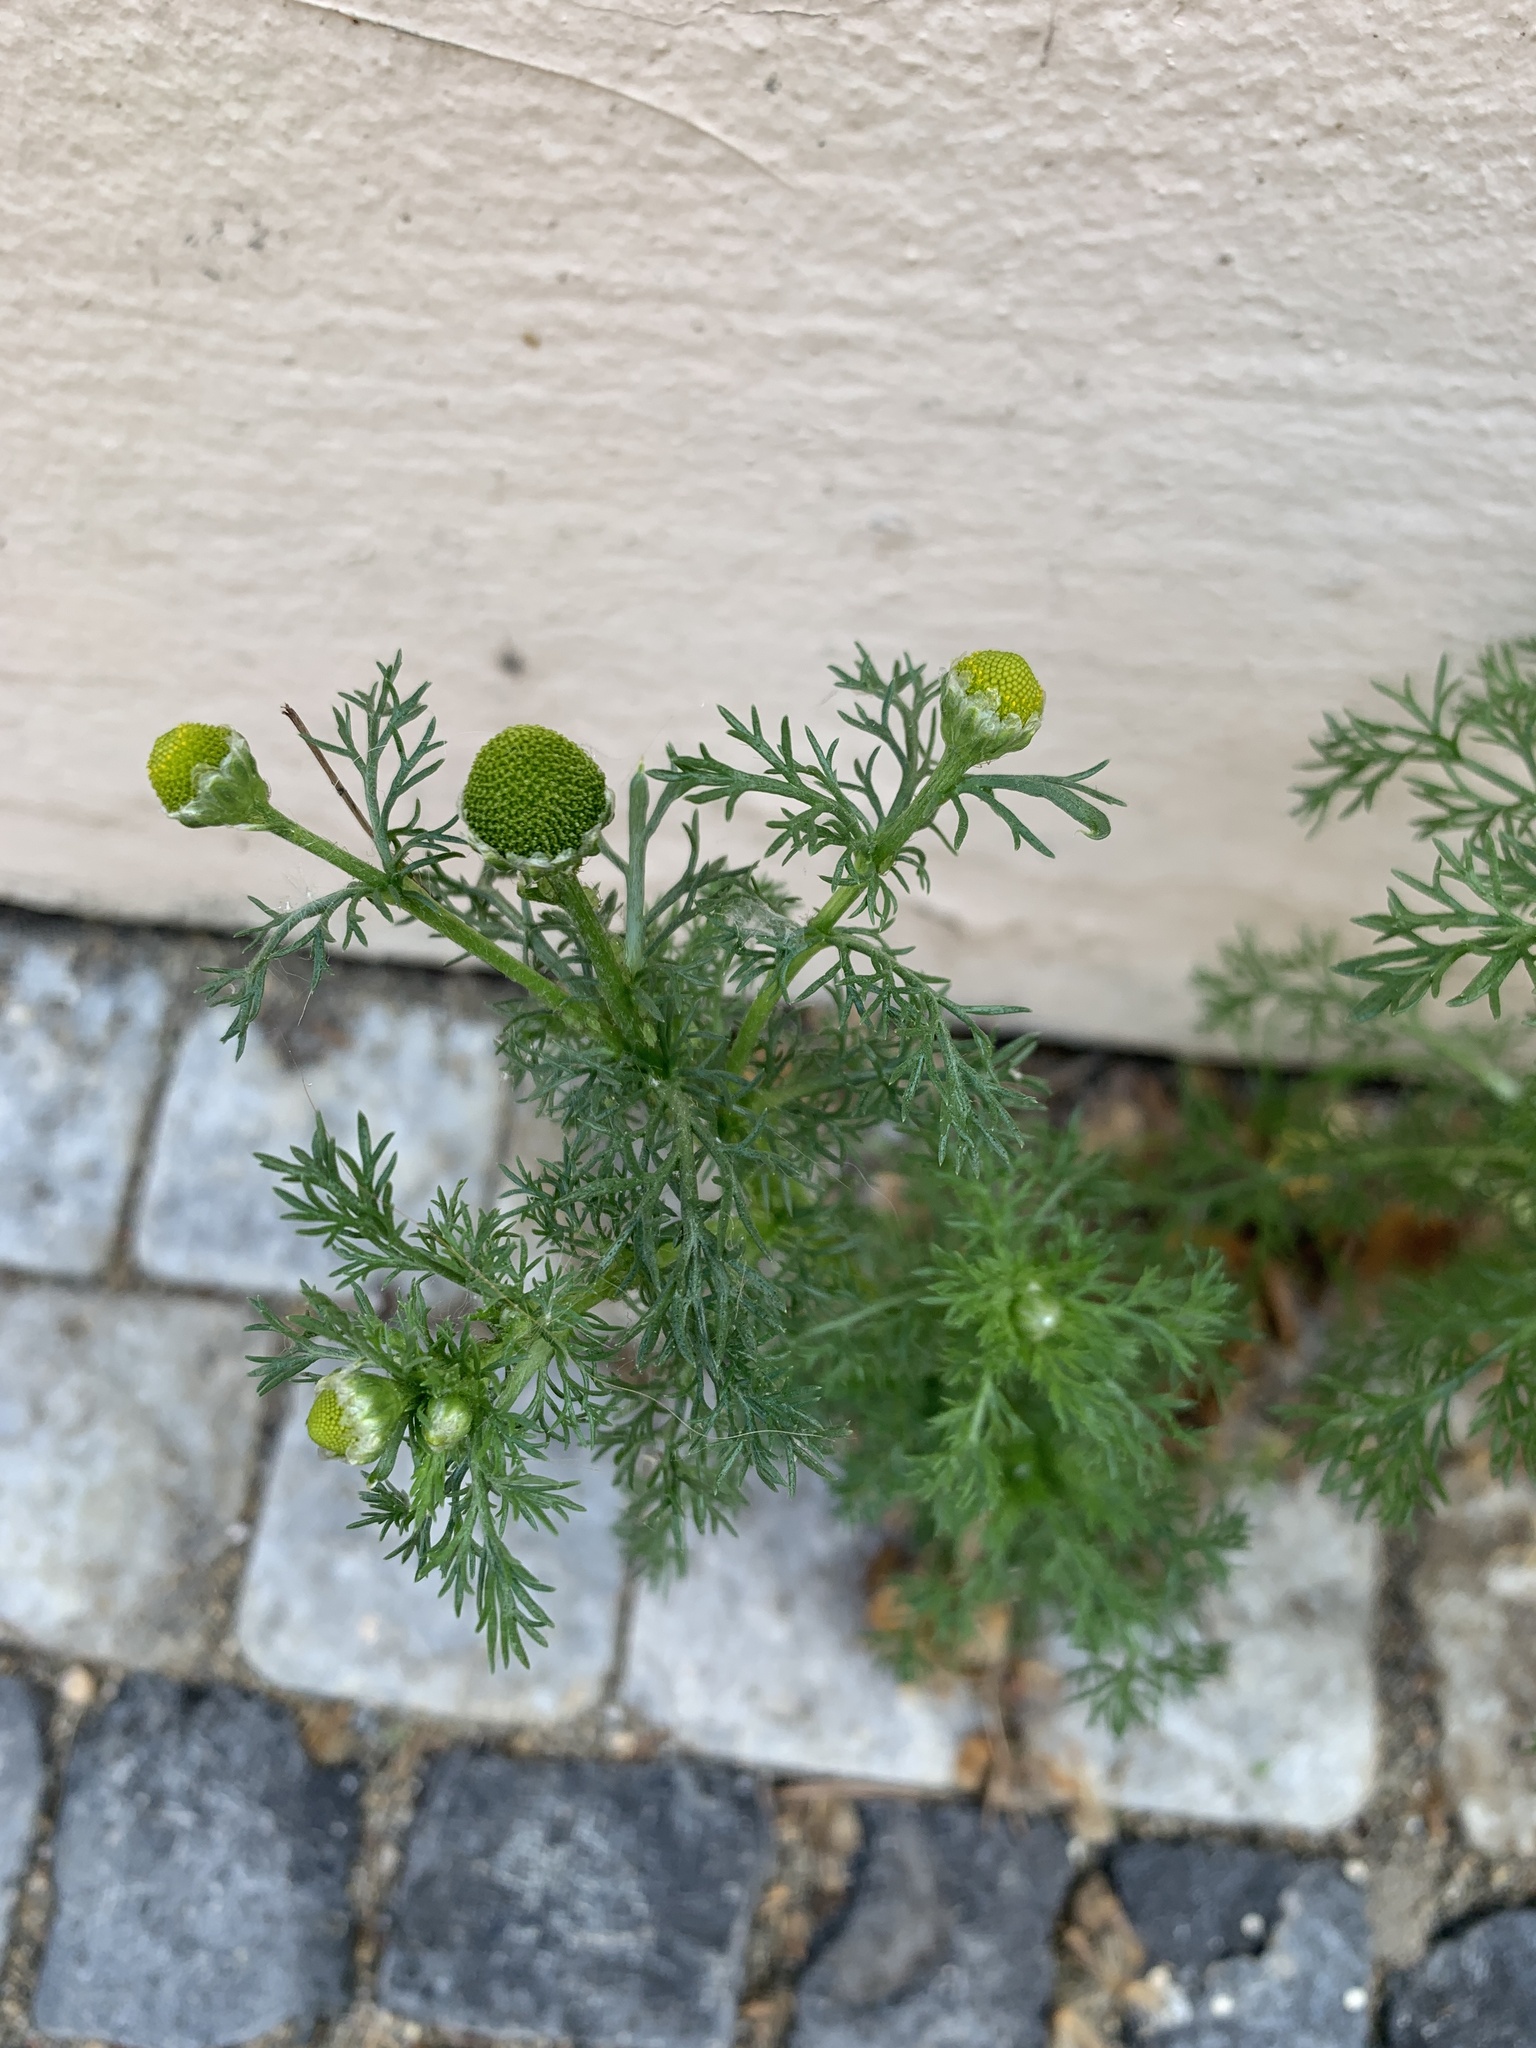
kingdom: Plantae
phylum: Tracheophyta
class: Magnoliopsida
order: Asterales
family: Asteraceae
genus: Matricaria
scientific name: Matricaria discoidea
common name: Disc mayweed
